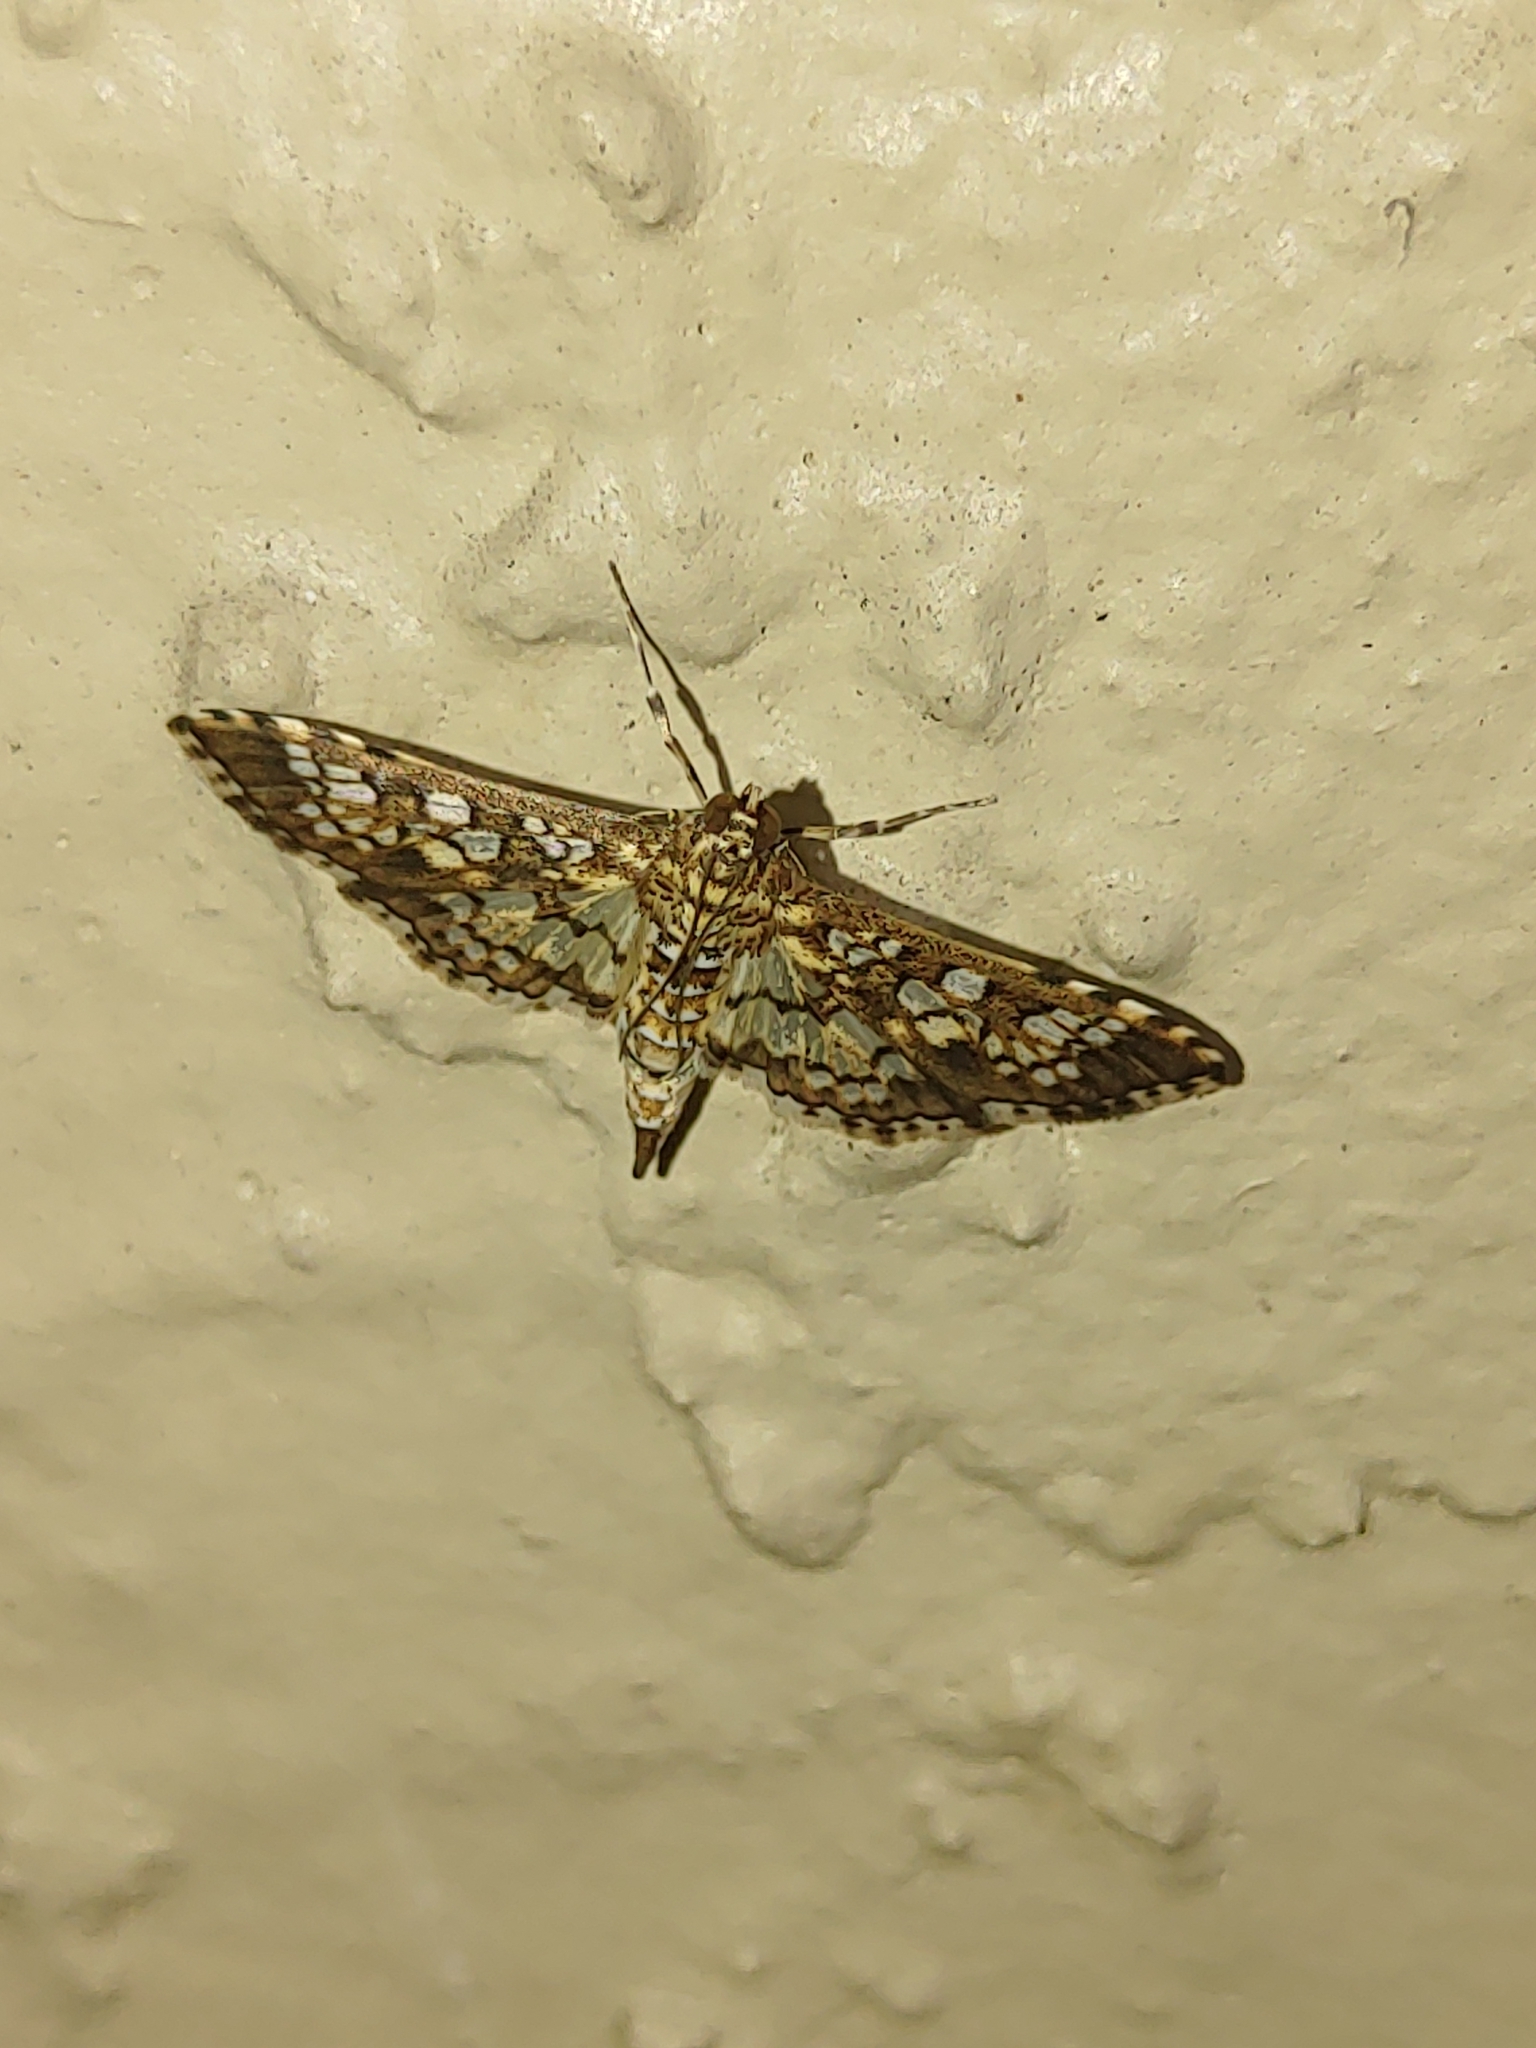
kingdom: Animalia
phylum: Arthropoda
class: Insecta
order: Lepidoptera
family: Crambidae
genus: Samea
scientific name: Samea ecclesialis
